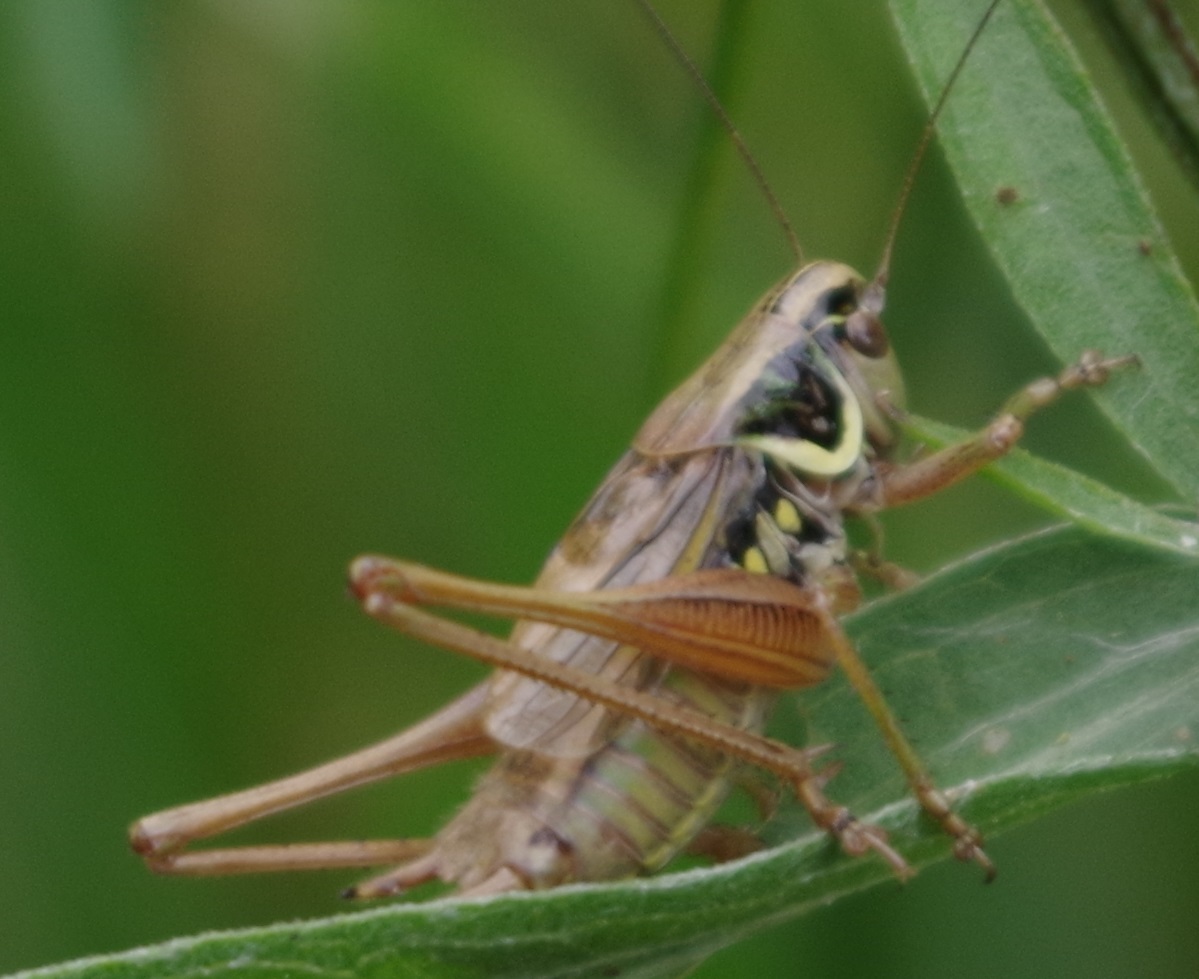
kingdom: Animalia
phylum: Arthropoda
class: Insecta
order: Orthoptera
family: Tettigoniidae
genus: Roeseliana
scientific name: Roeseliana roeselii
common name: Roesel's bush cricket
